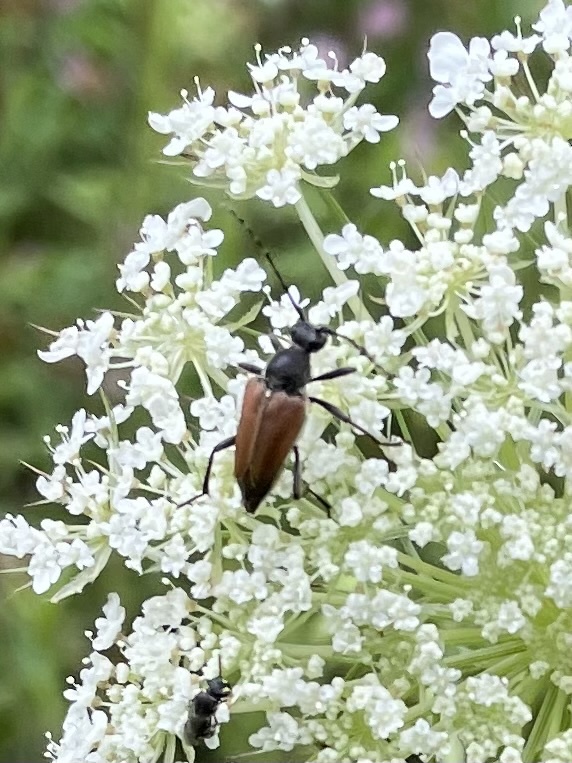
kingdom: Animalia
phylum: Arthropoda
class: Insecta
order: Coleoptera
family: Cerambycidae
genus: Brachyleptura
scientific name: Brachyleptura rubrica
